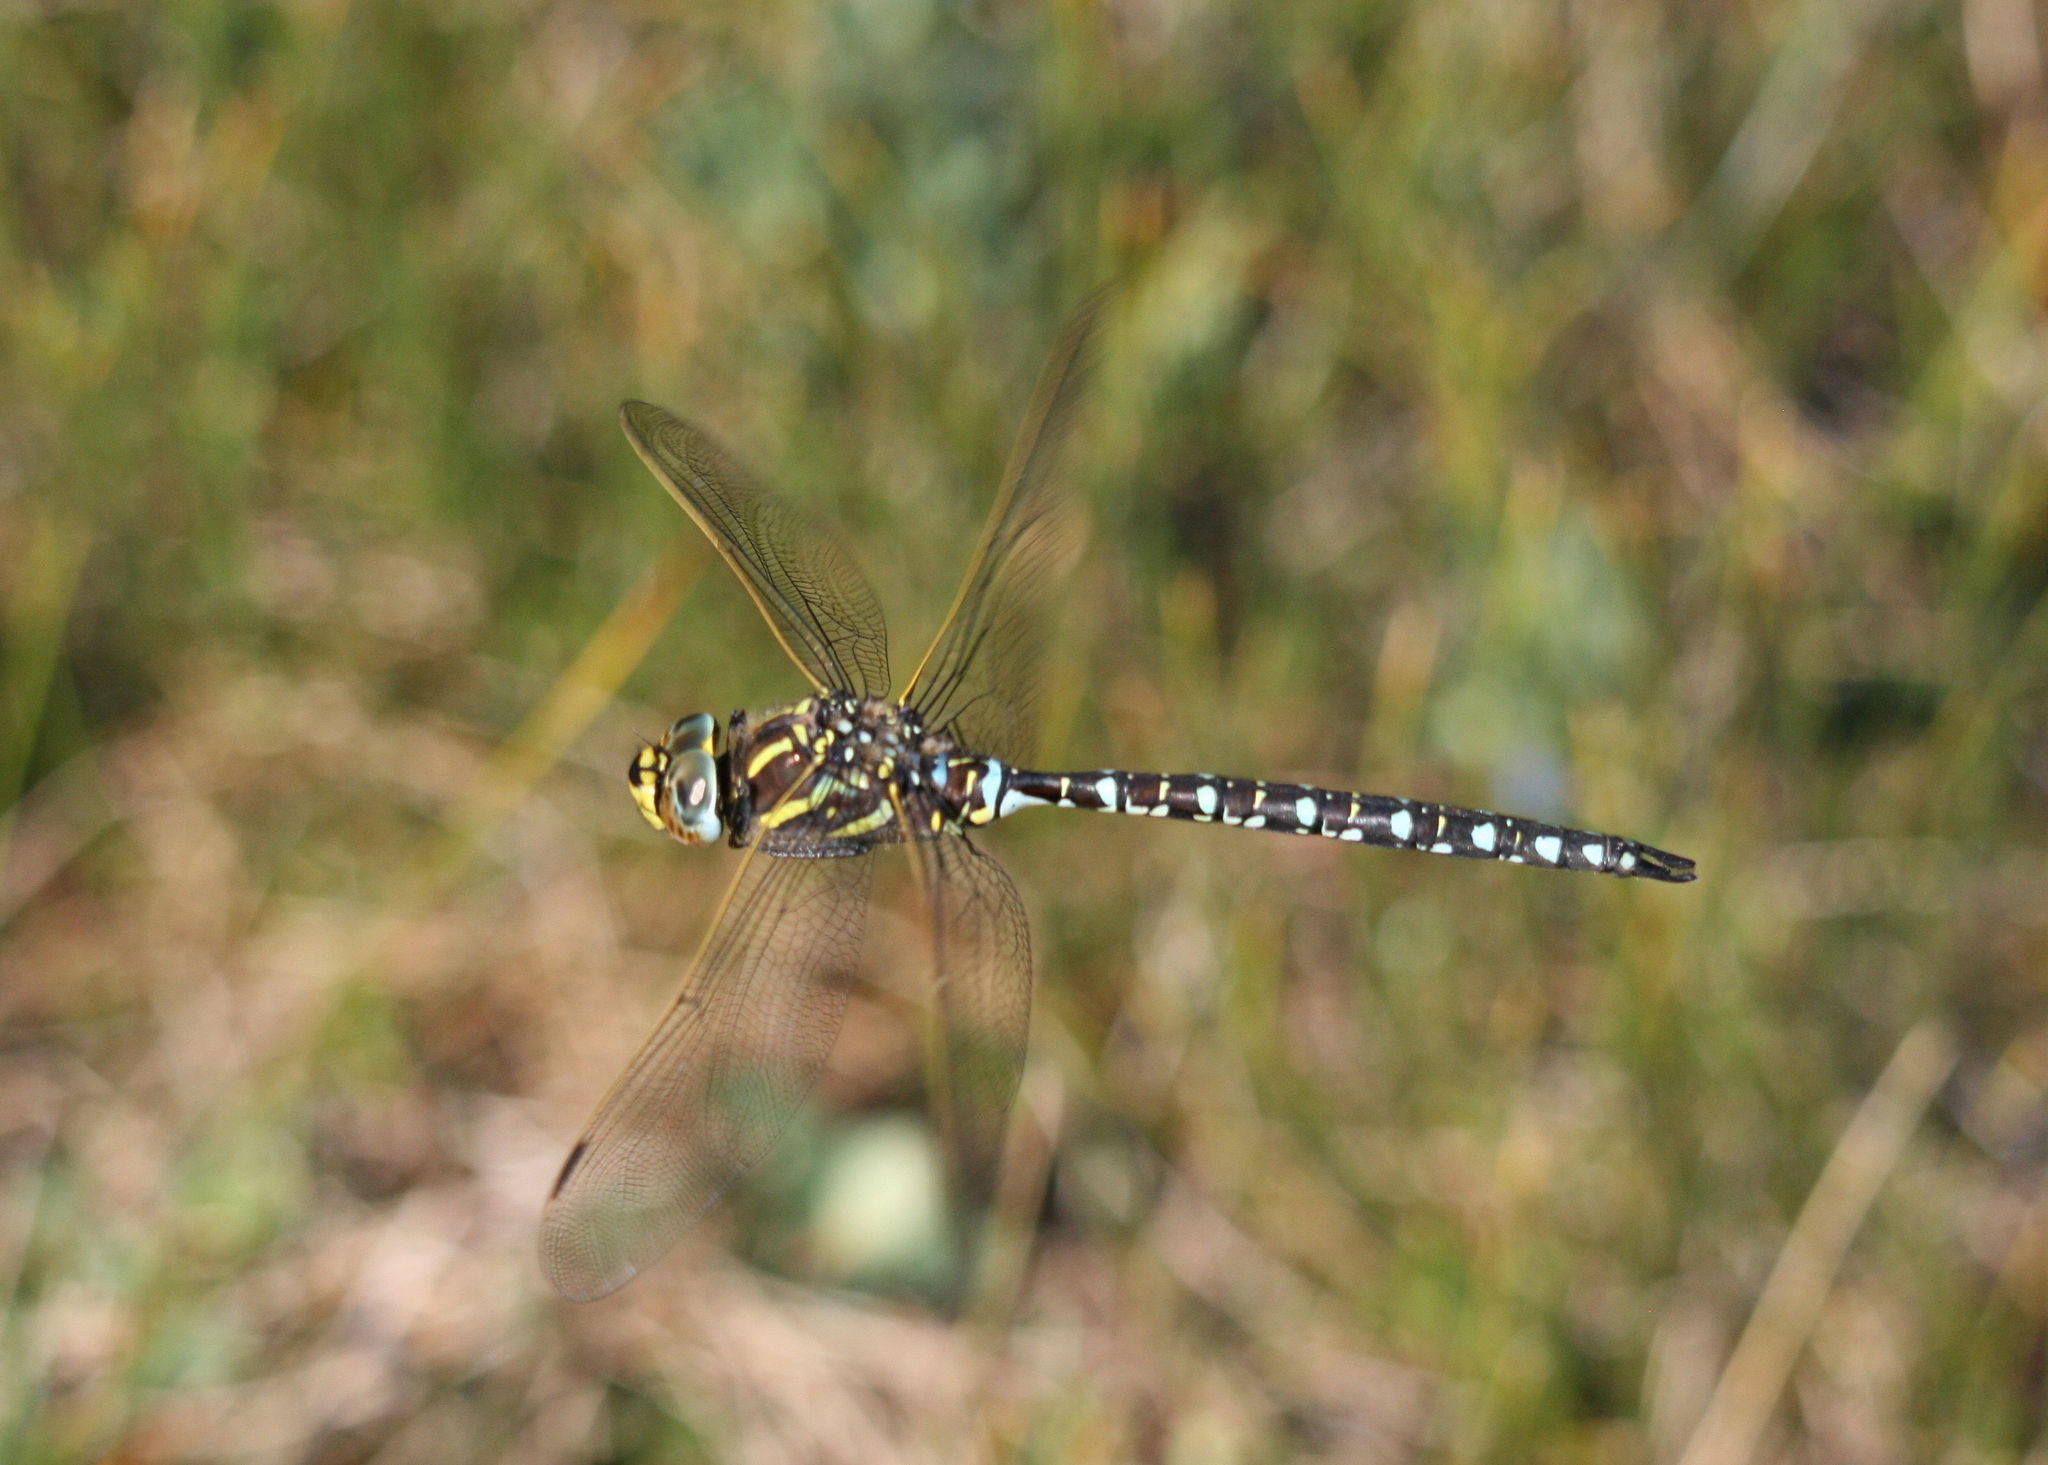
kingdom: Animalia
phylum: Arthropoda
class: Insecta
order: Odonata
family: Aeshnidae
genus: Aeshna
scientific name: Aeshna juncea
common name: Moorland hawker
